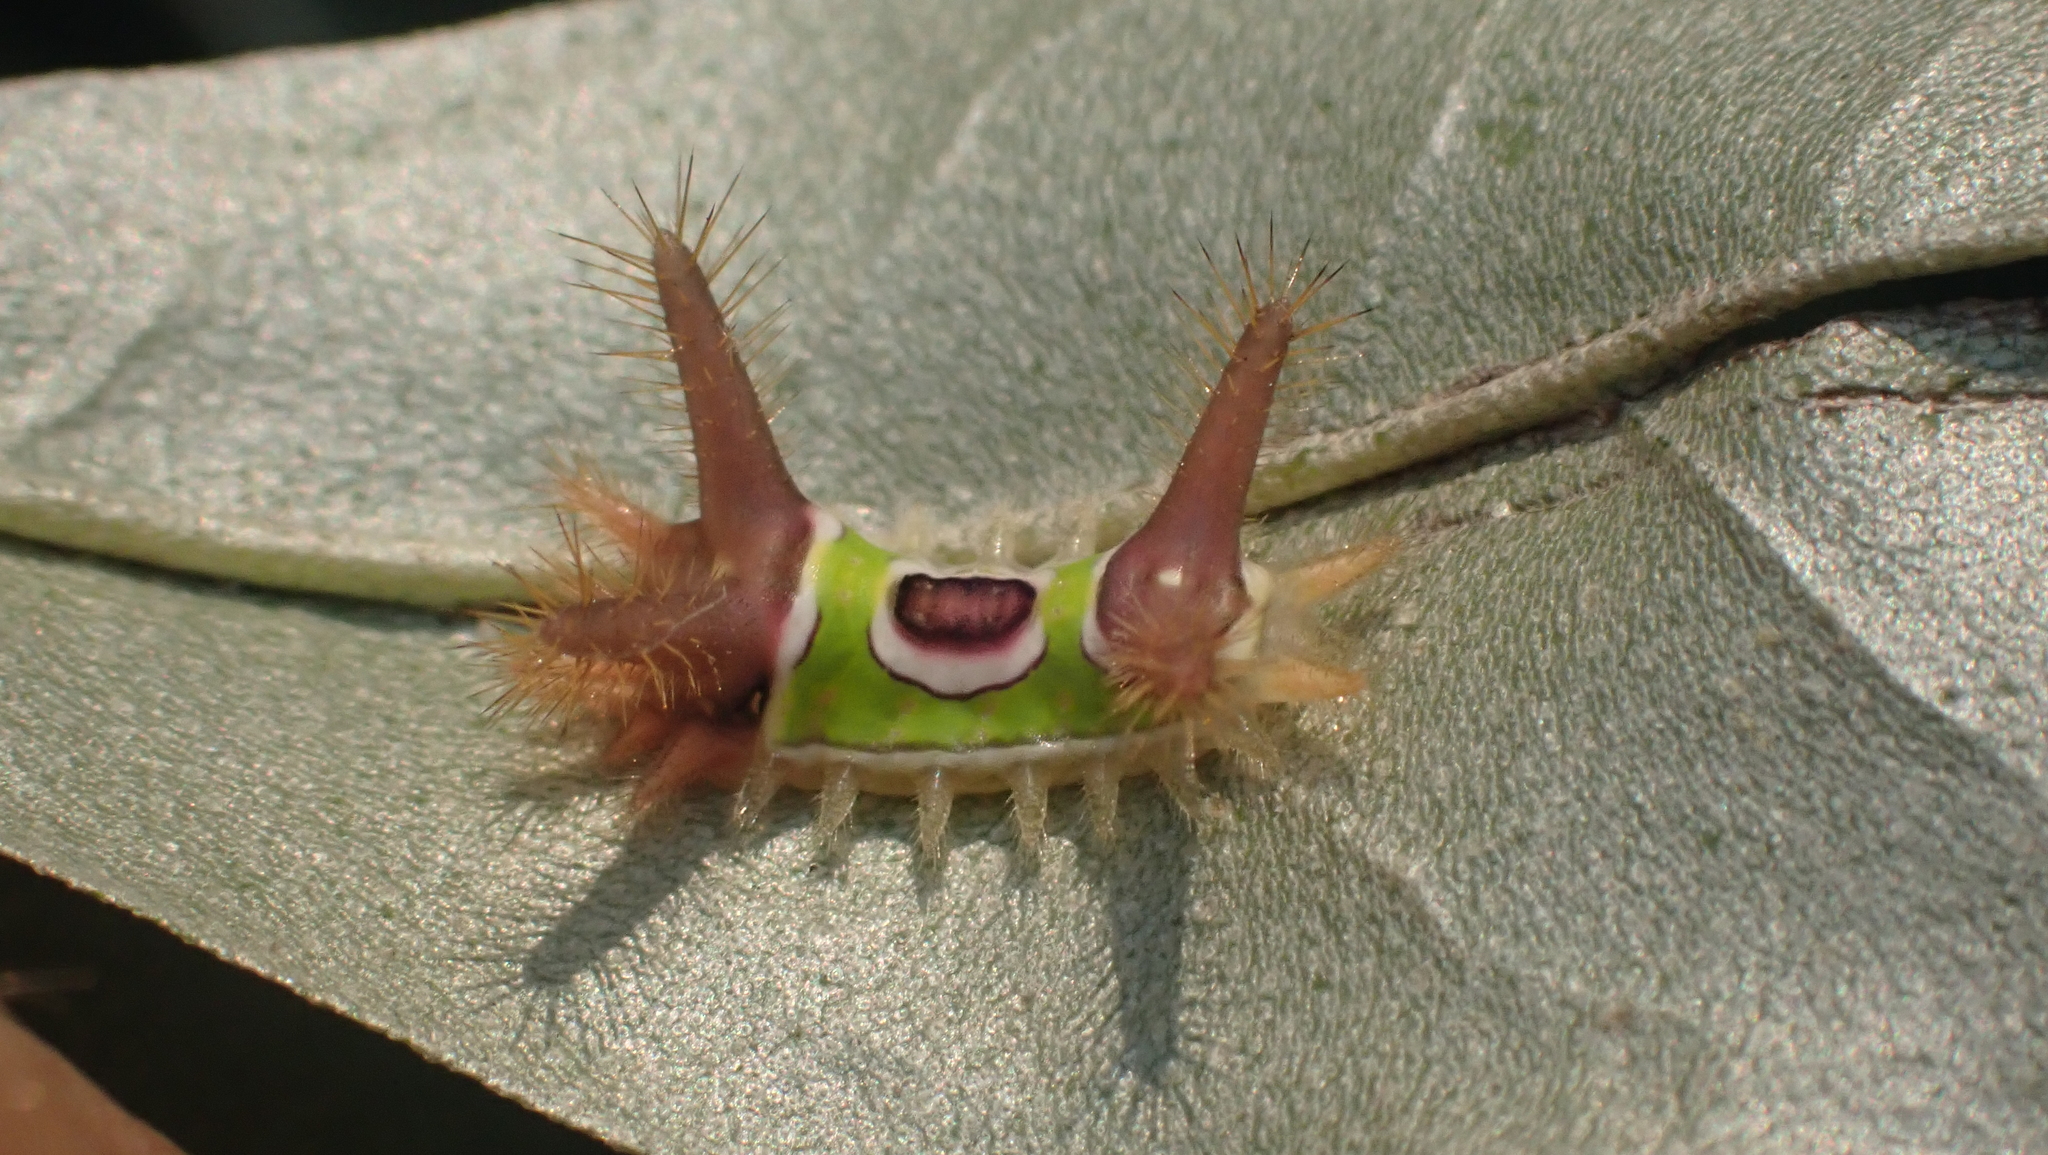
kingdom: Animalia
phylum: Arthropoda
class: Insecta
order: Lepidoptera
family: Limacodidae
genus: Acharia
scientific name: Acharia stimulea
